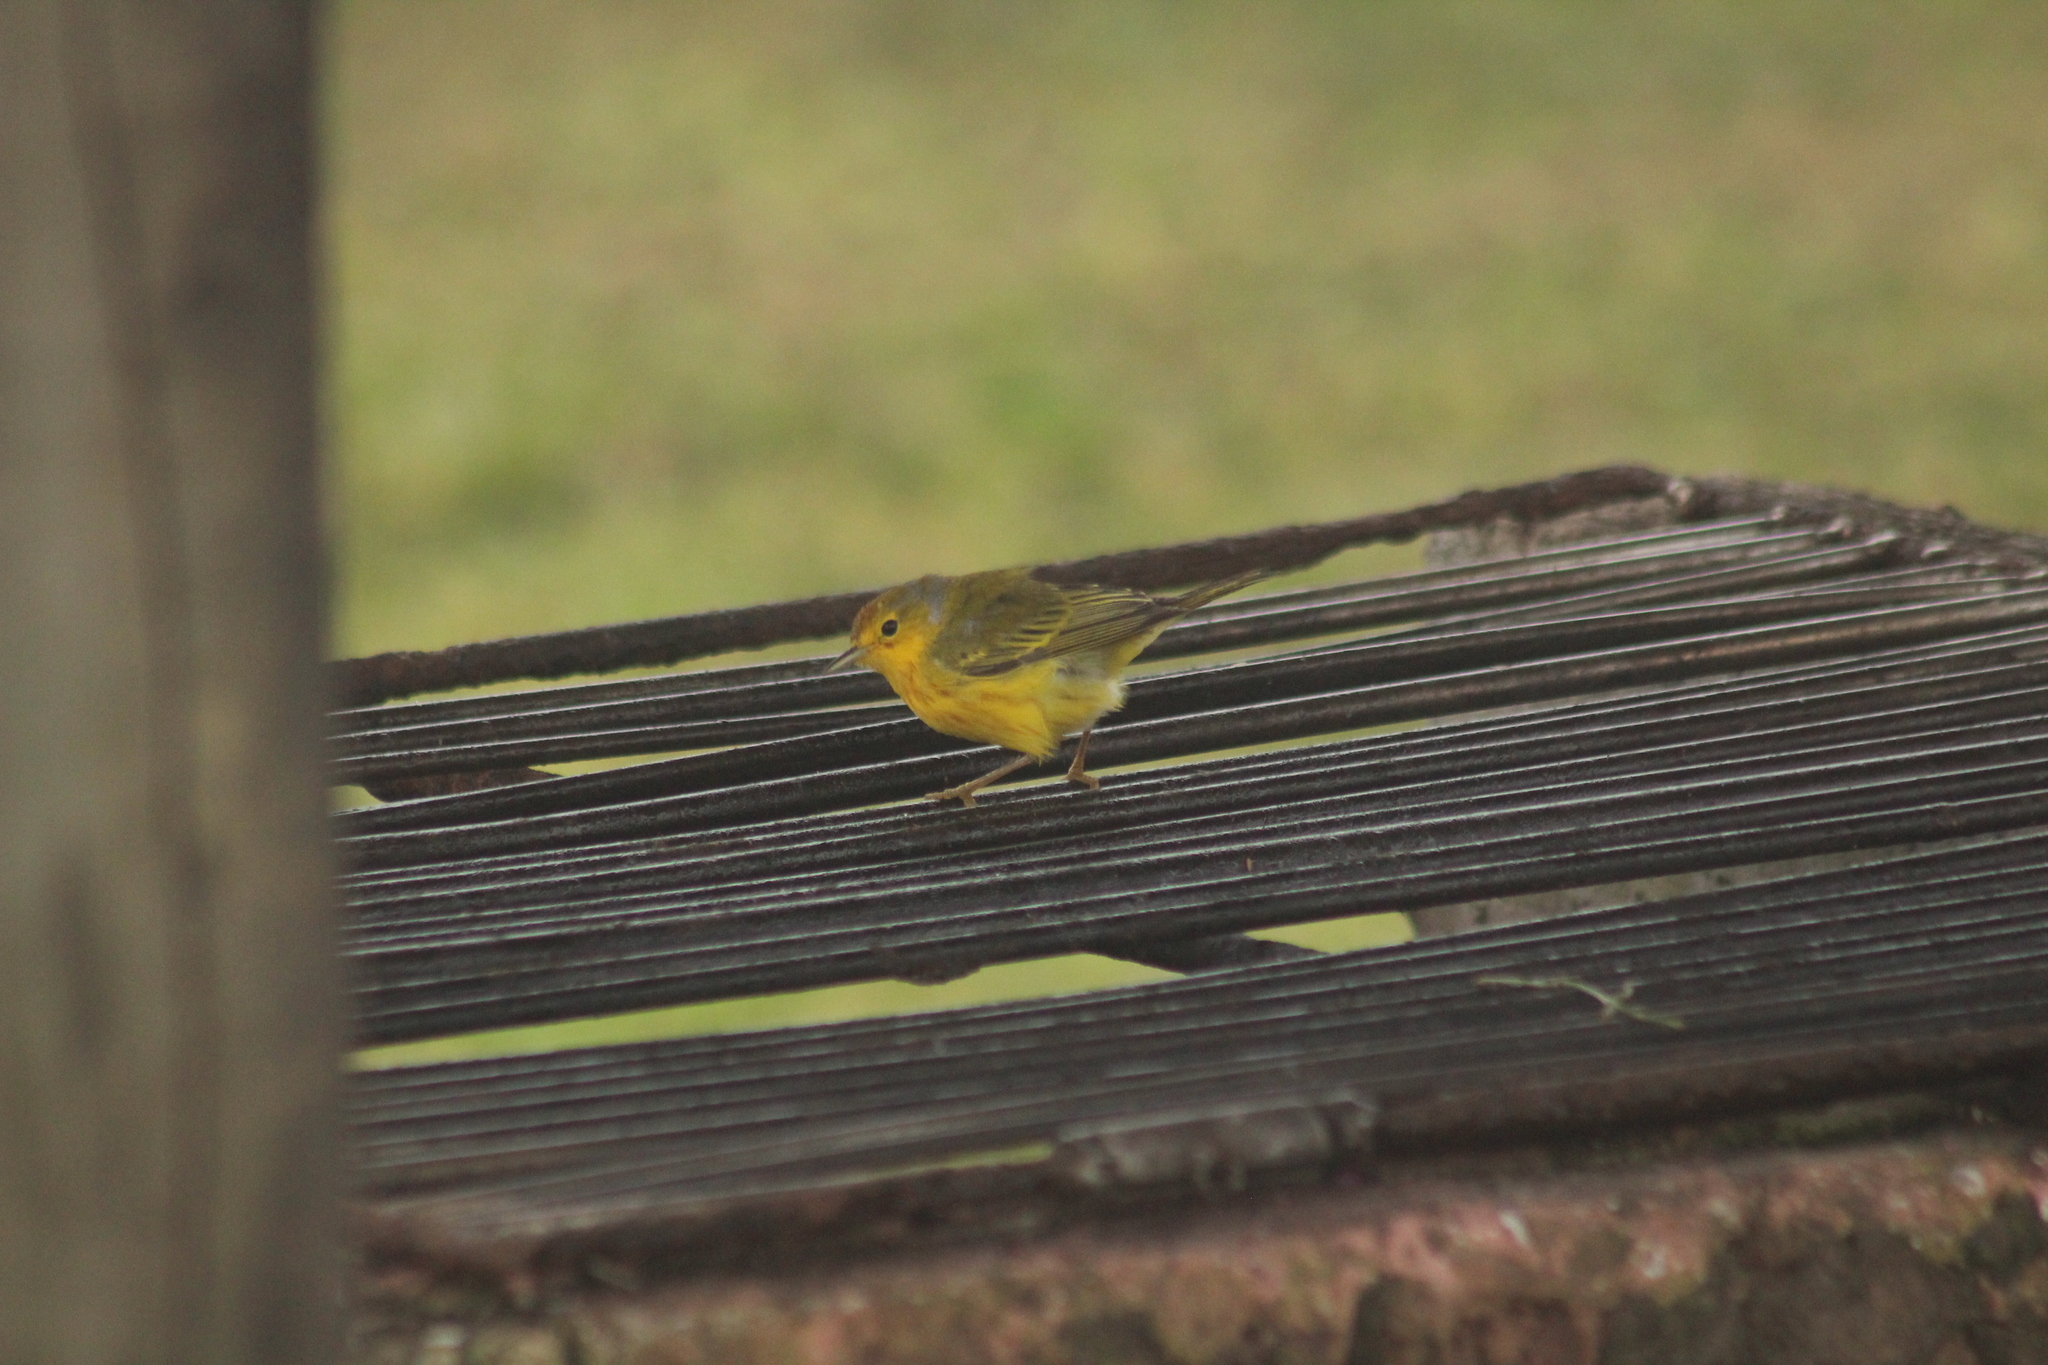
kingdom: Animalia
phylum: Chordata
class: Aves
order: Passeriformes
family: Parulidae
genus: Setophaga
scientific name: Setophaga petechia
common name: Yellow warbler
